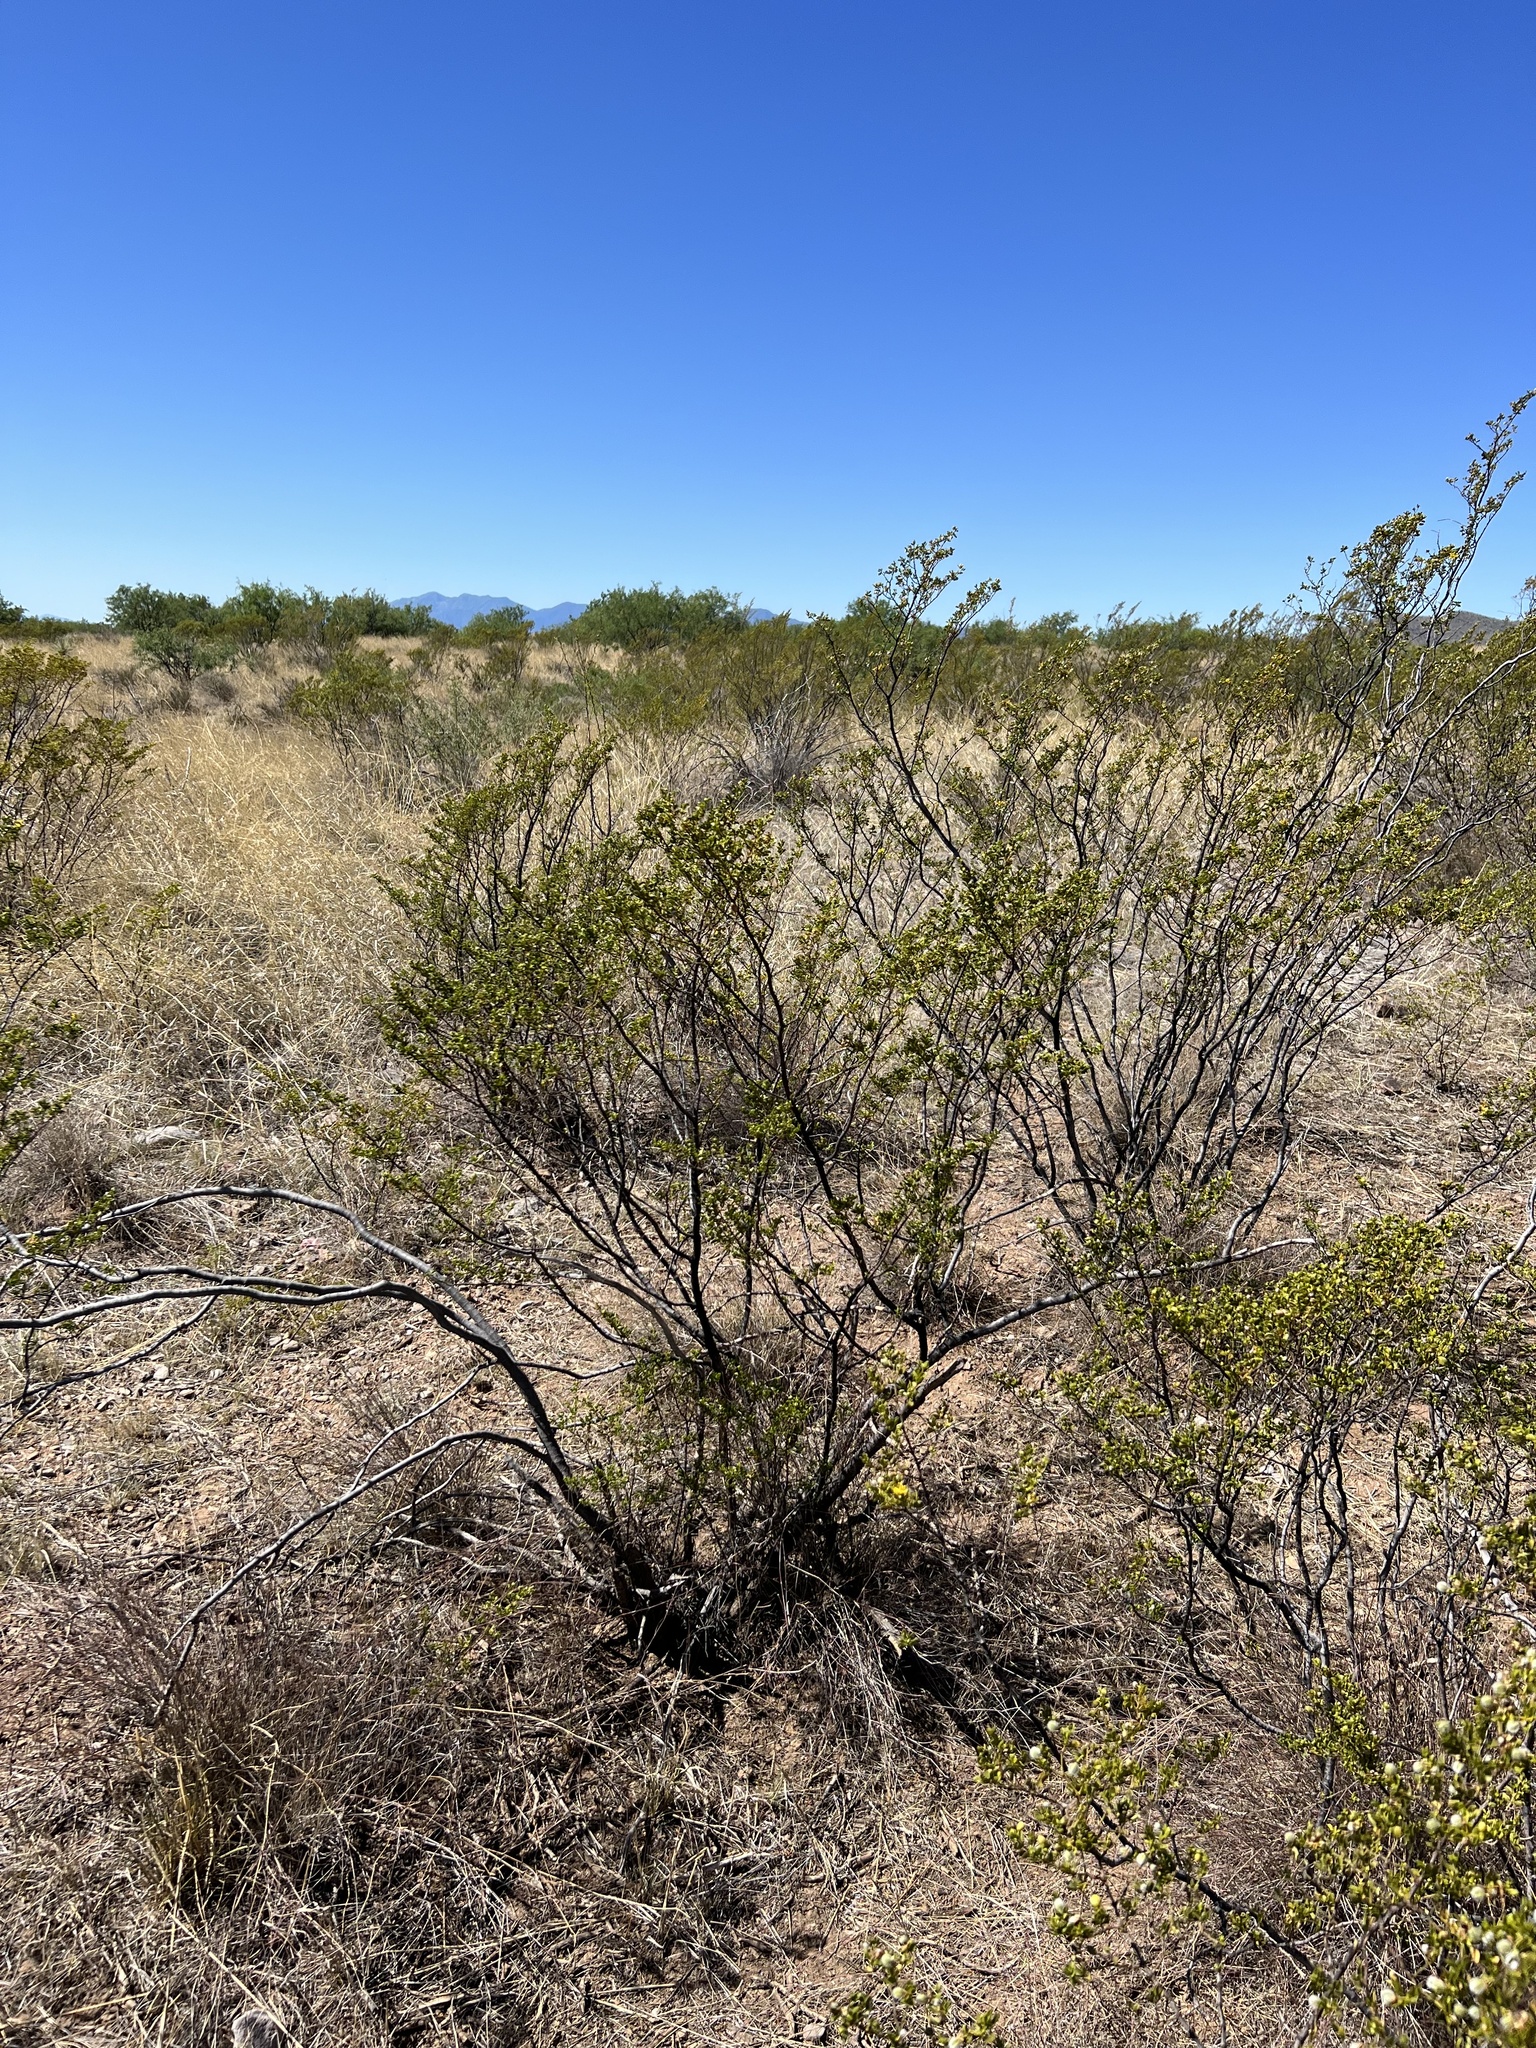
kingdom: Plantae
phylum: Tracheophyta
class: Magnoliopsida
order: Zygophyllales
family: Zygophyllaceae
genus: Larrea
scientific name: Larrea tridentata
